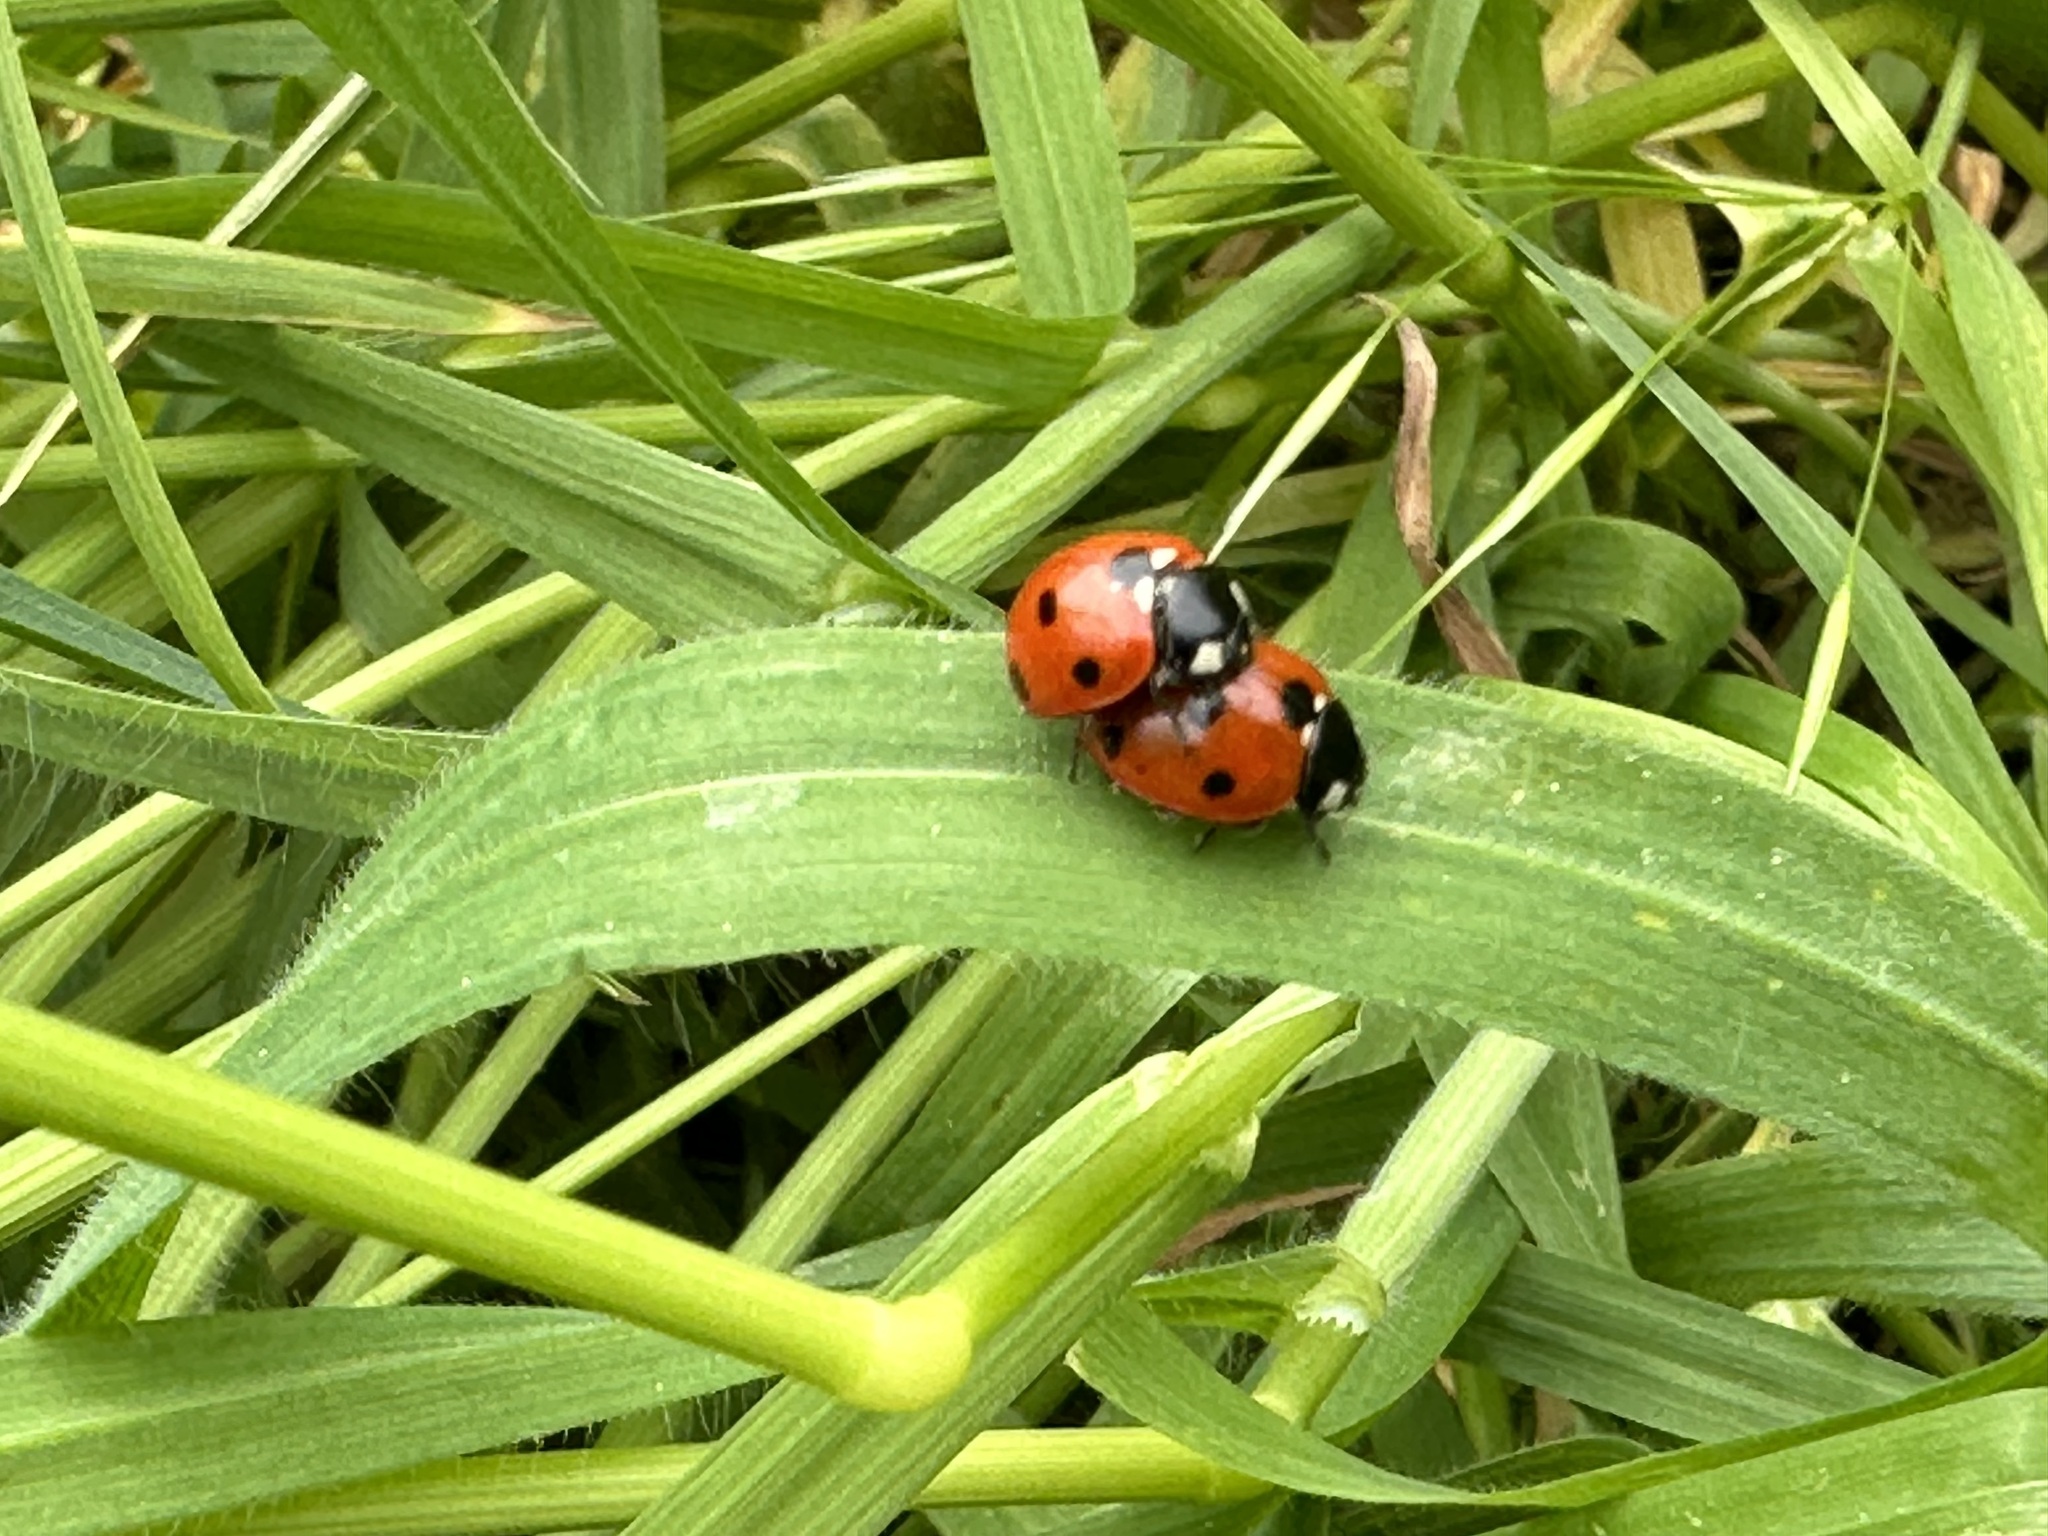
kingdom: Animalia
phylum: Arthropoda
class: Insecta
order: Coleoptera
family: Coccinellidae
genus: Coccinella
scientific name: Coccinella septempunctata
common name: Sevenspotted lady beetle
